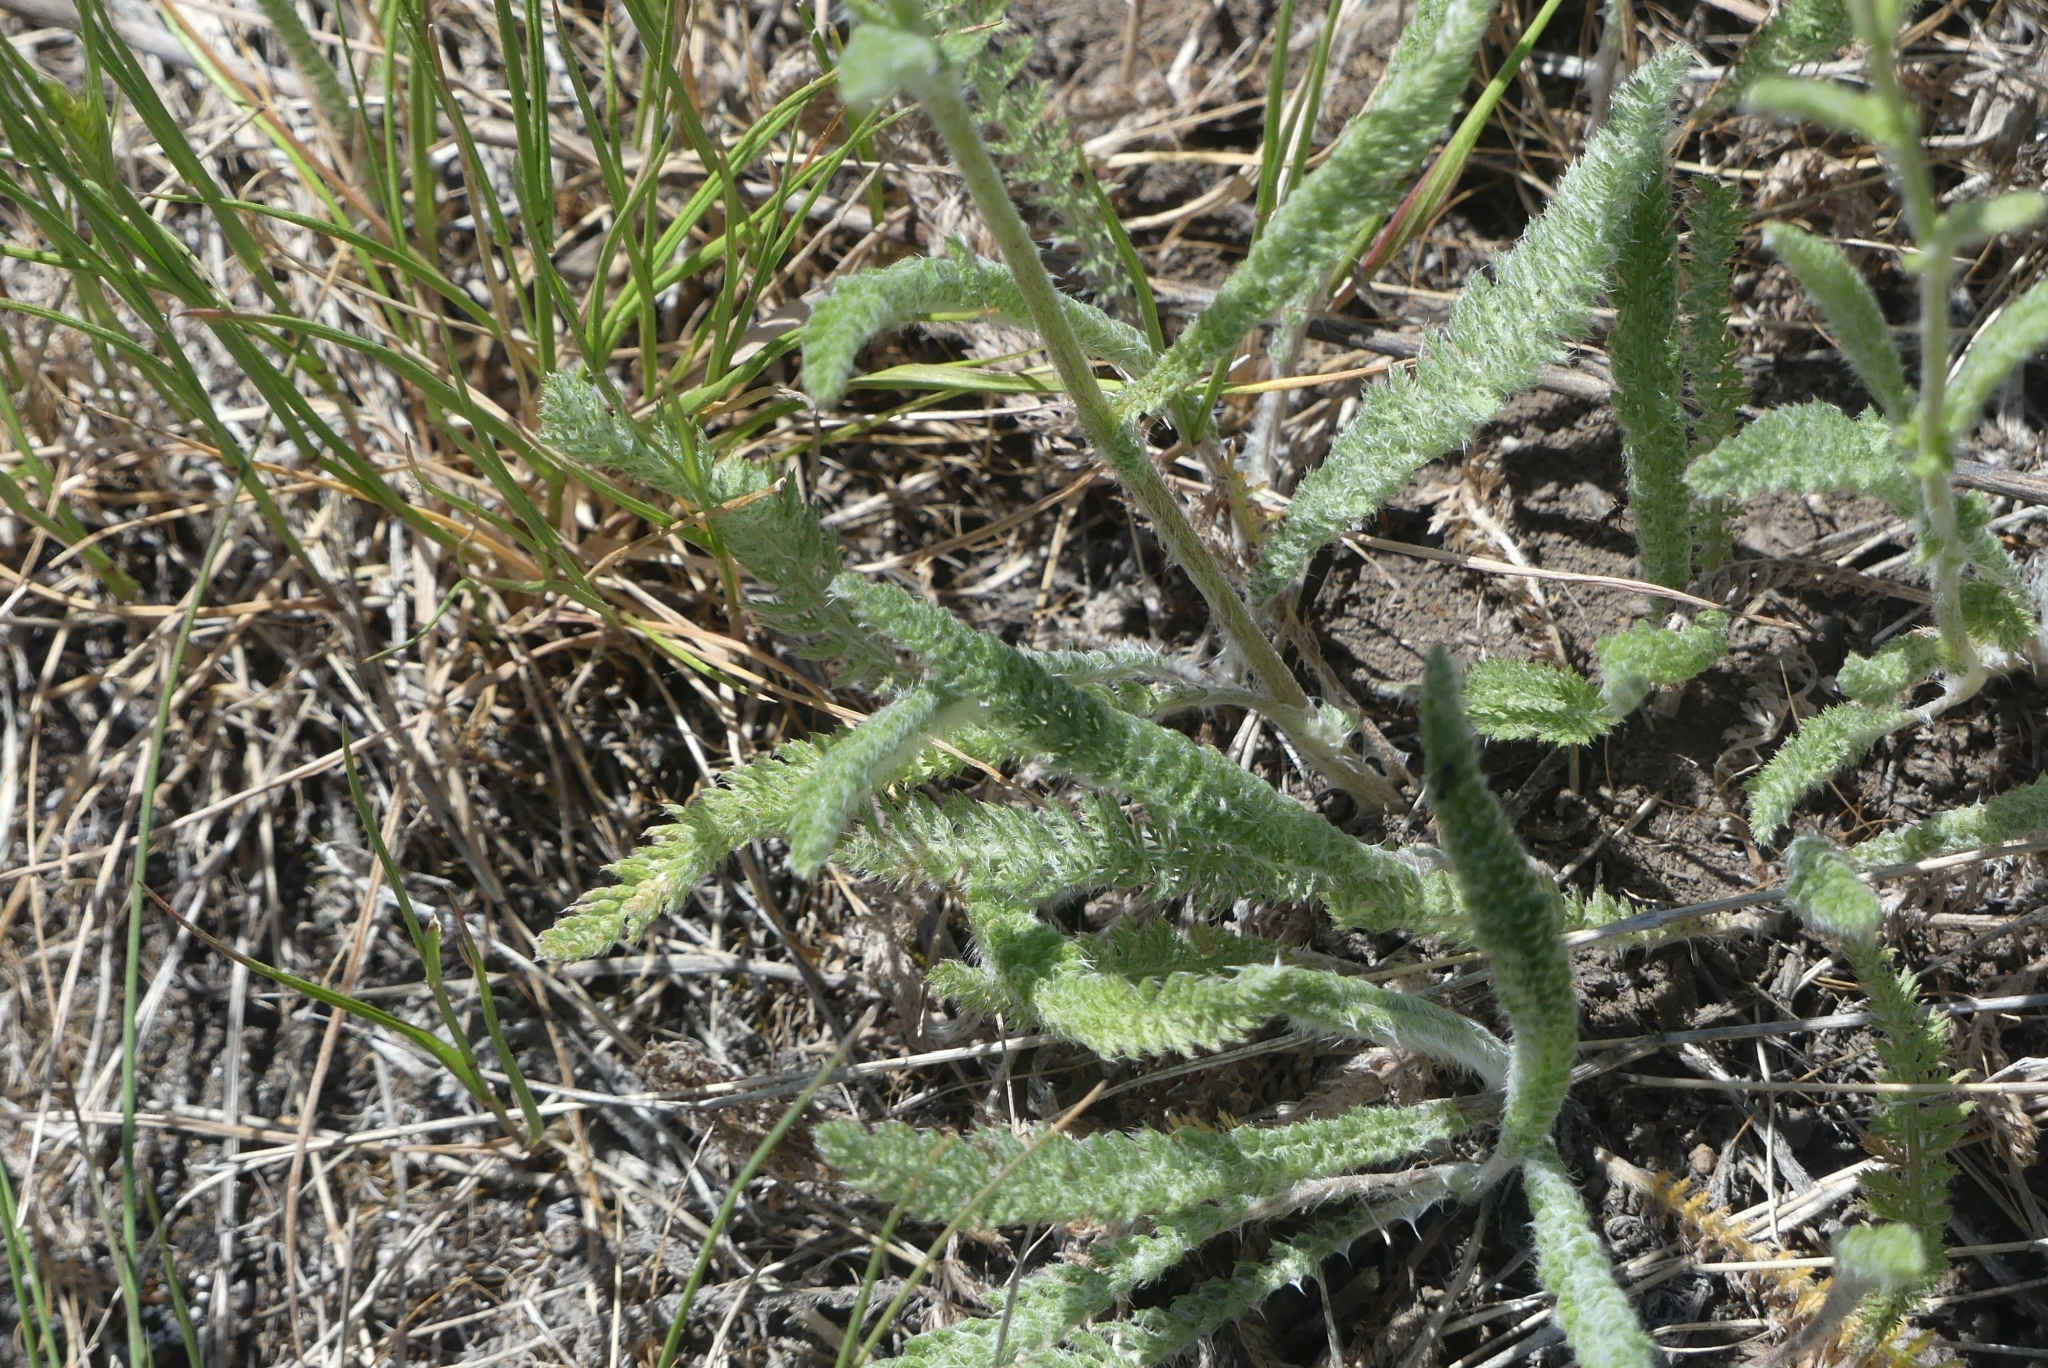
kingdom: Plantae
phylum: Tracheophyta
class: Magnoliopsida
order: Asterales
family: Asteraceae
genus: Achillea
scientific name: Achillea millefolium
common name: Yarrow
